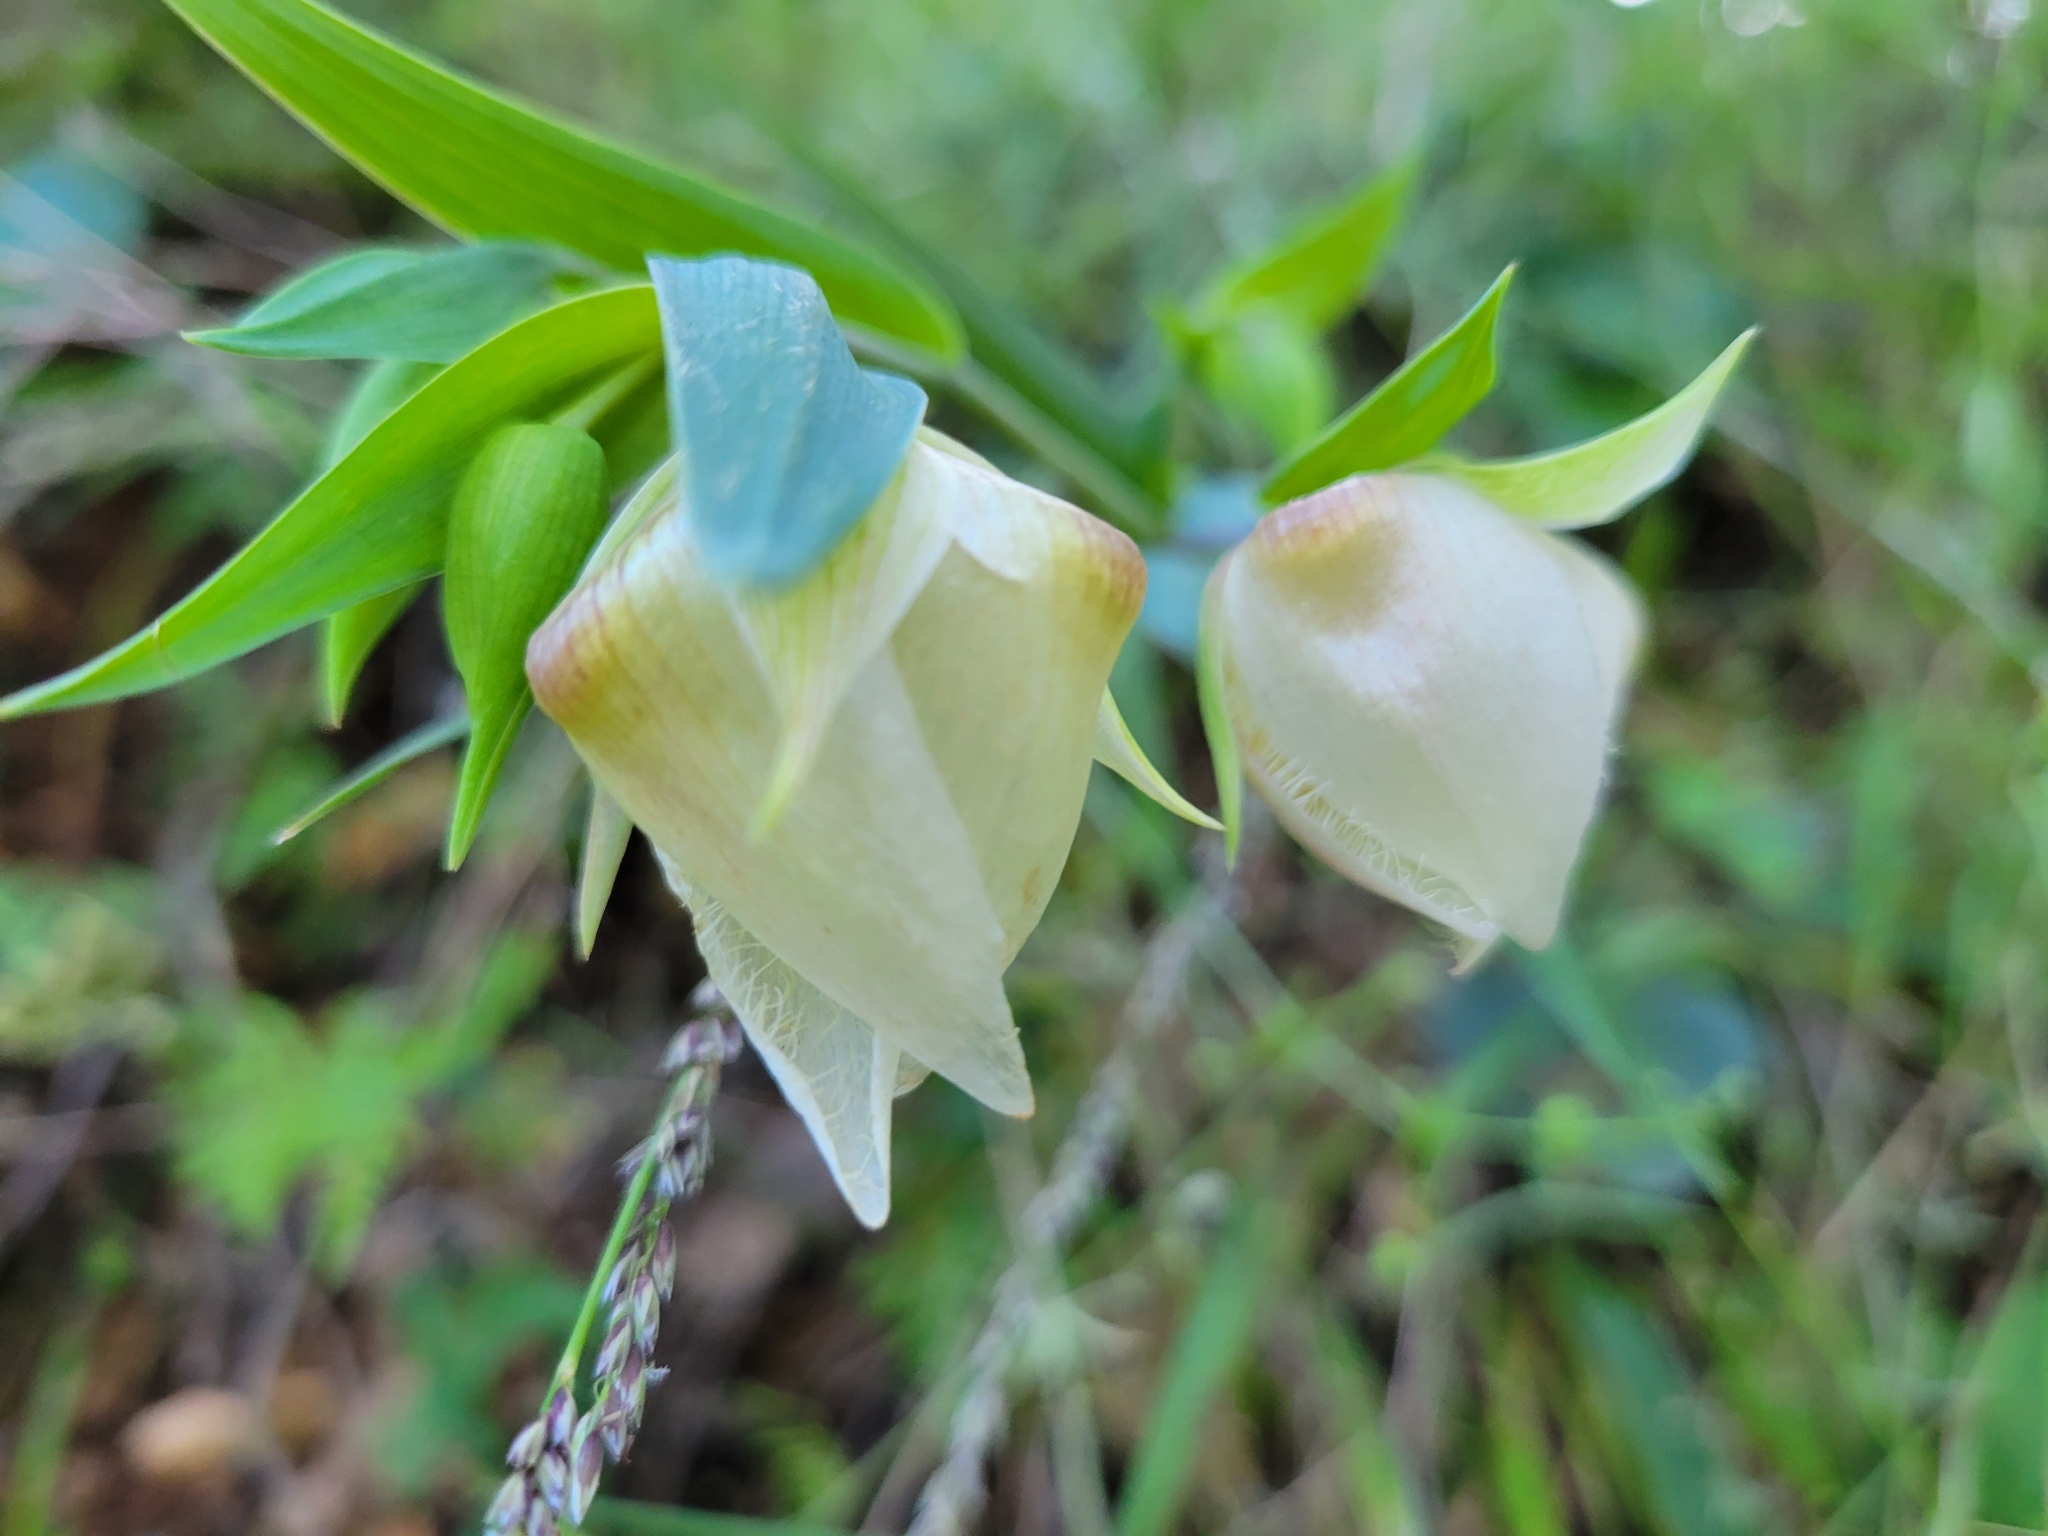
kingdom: Plantae
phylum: Tracheophyta
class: Liliopsida
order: Liliales
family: Liliaceae
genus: Calochortus
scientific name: Calochortus albus
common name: Fairy-lantern
